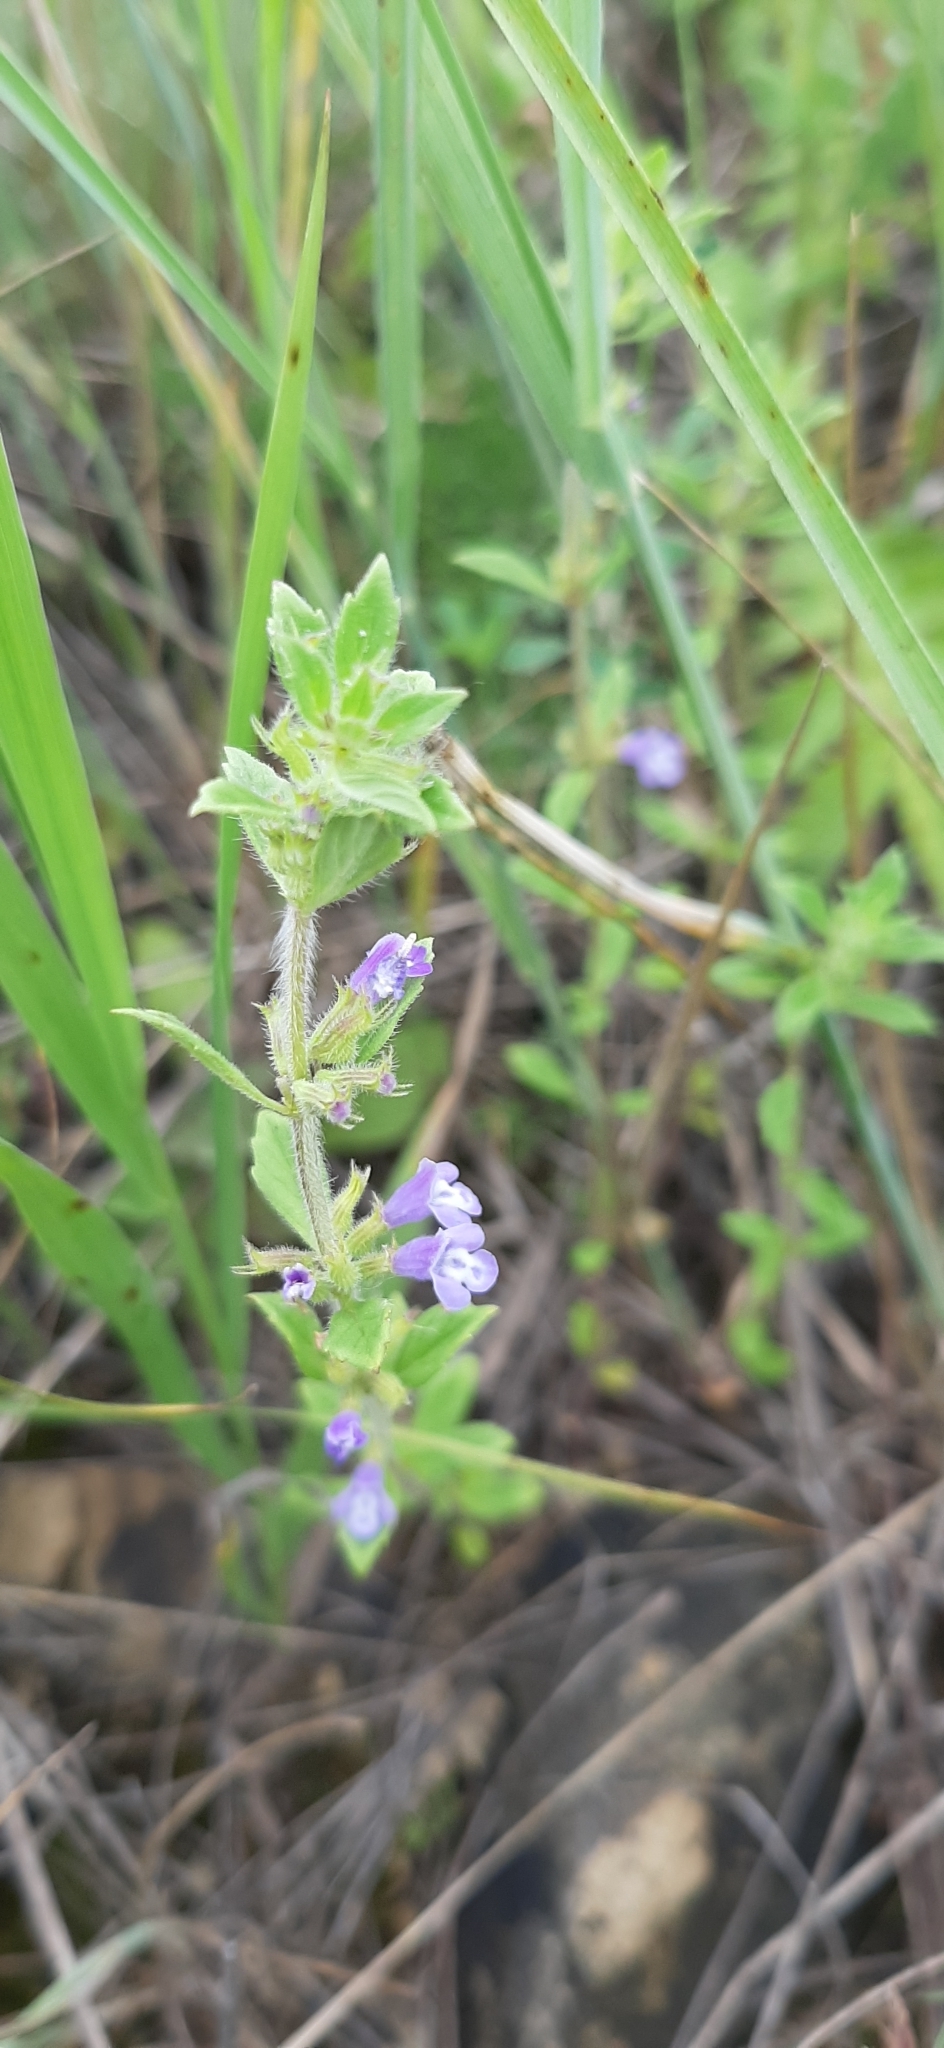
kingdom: Plantae
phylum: Tracheophyta
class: Magnoliopsida
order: Lamiales
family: Lamiaceae
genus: Clinopodium
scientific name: Clinopodium acinos
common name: Basil thyme
